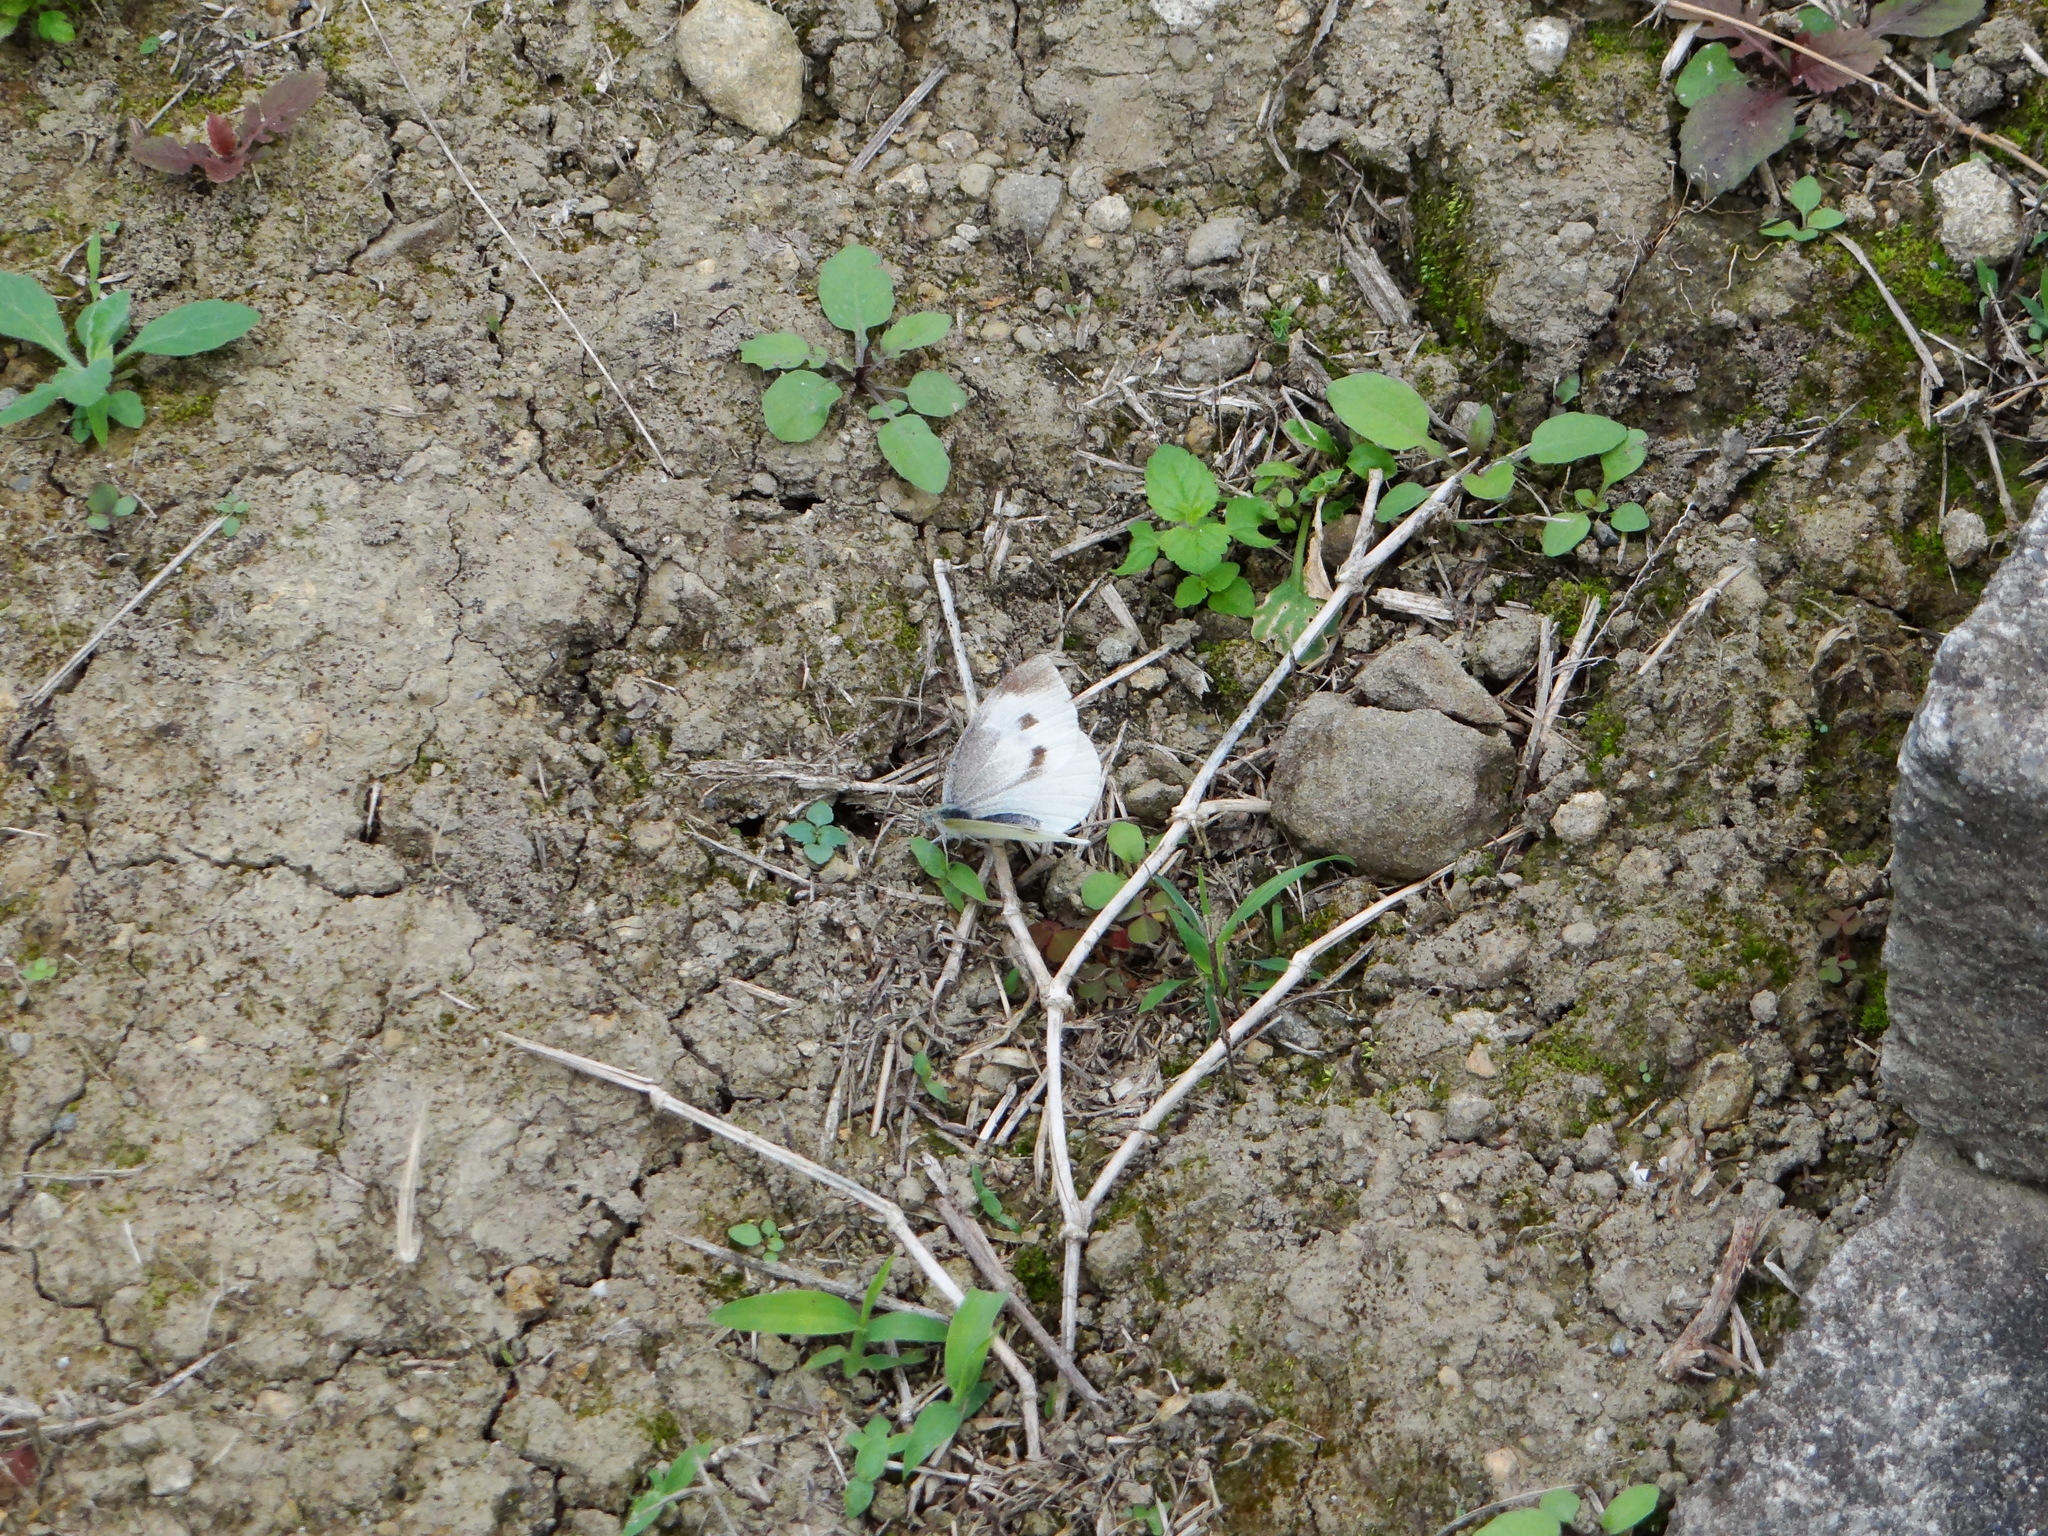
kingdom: Animalia
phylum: Arthropoda
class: Insecta
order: Lepidoptera
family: Pieridae
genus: Pieris
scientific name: Pieris rapae
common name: Small white
